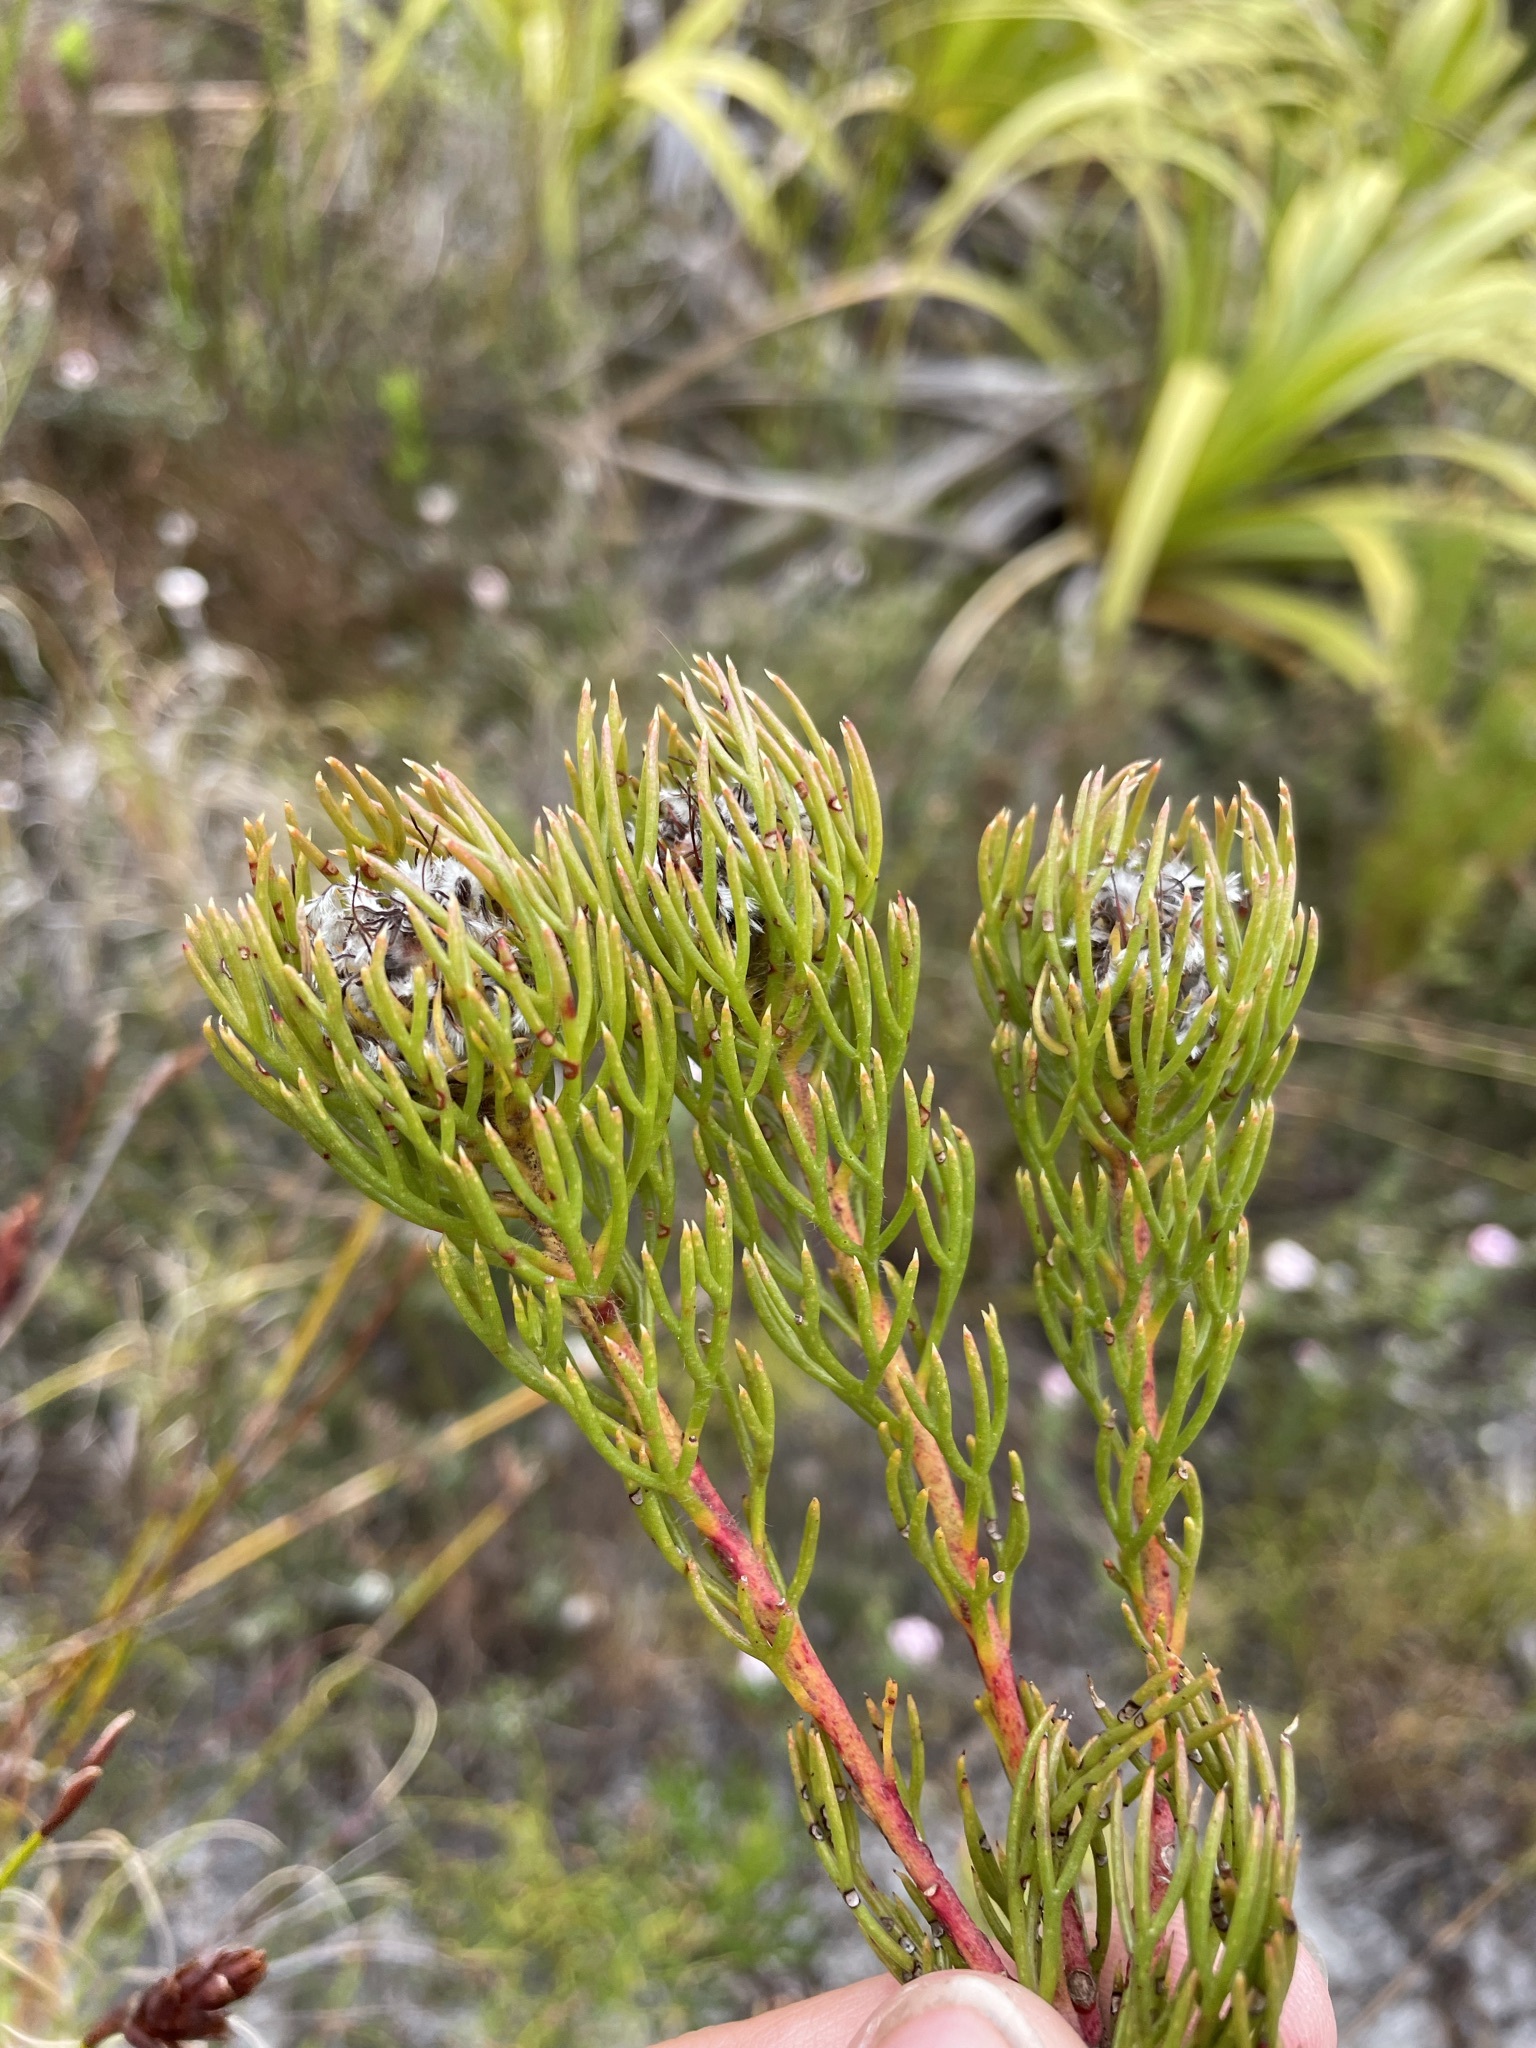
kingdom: Plantae
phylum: Tracheophyta
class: Magnoliopsida
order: Proteales
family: Proteaceae
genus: Serruria
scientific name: Serruria villosa
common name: Golden spiderhead
